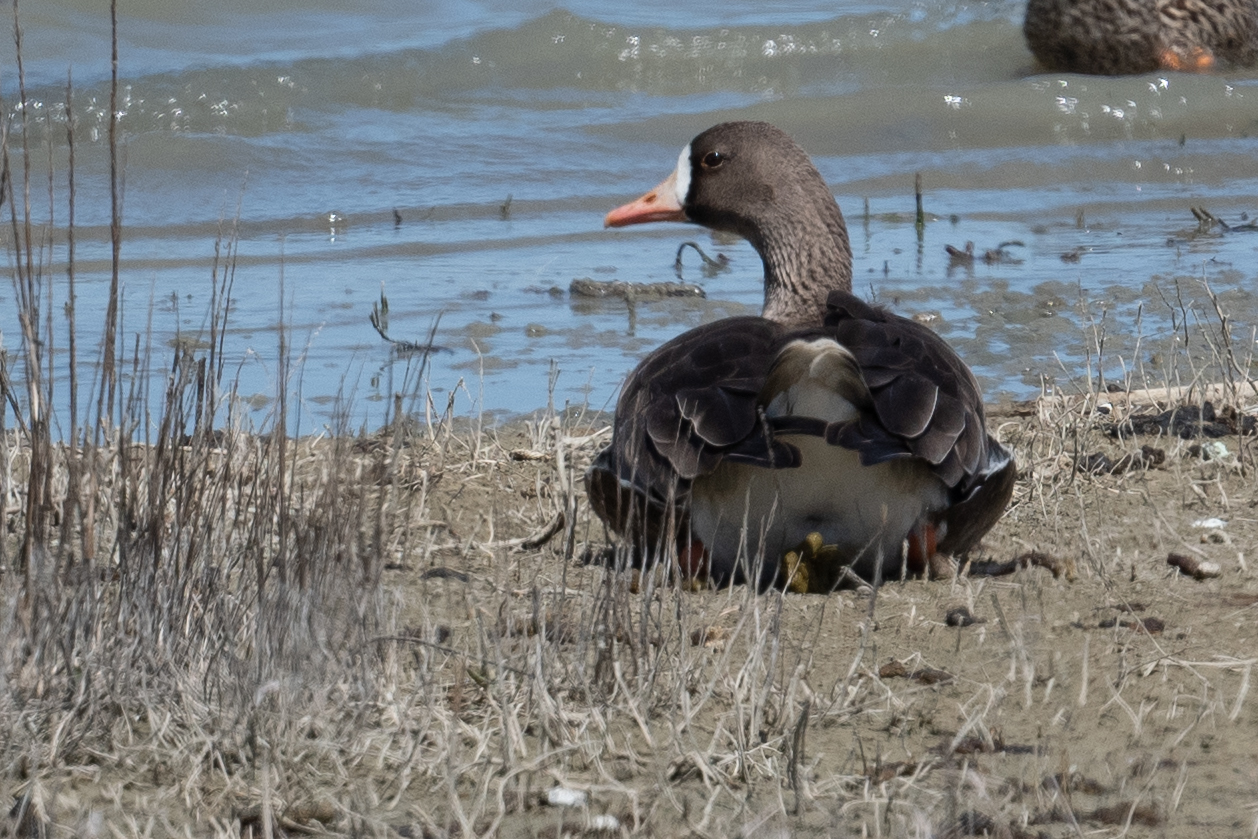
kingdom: Animalia
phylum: Chordata
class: Aves
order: Anseriformes
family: Anatidae
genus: Anser
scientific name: Anser albifrons
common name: Greater white-fronted goose
